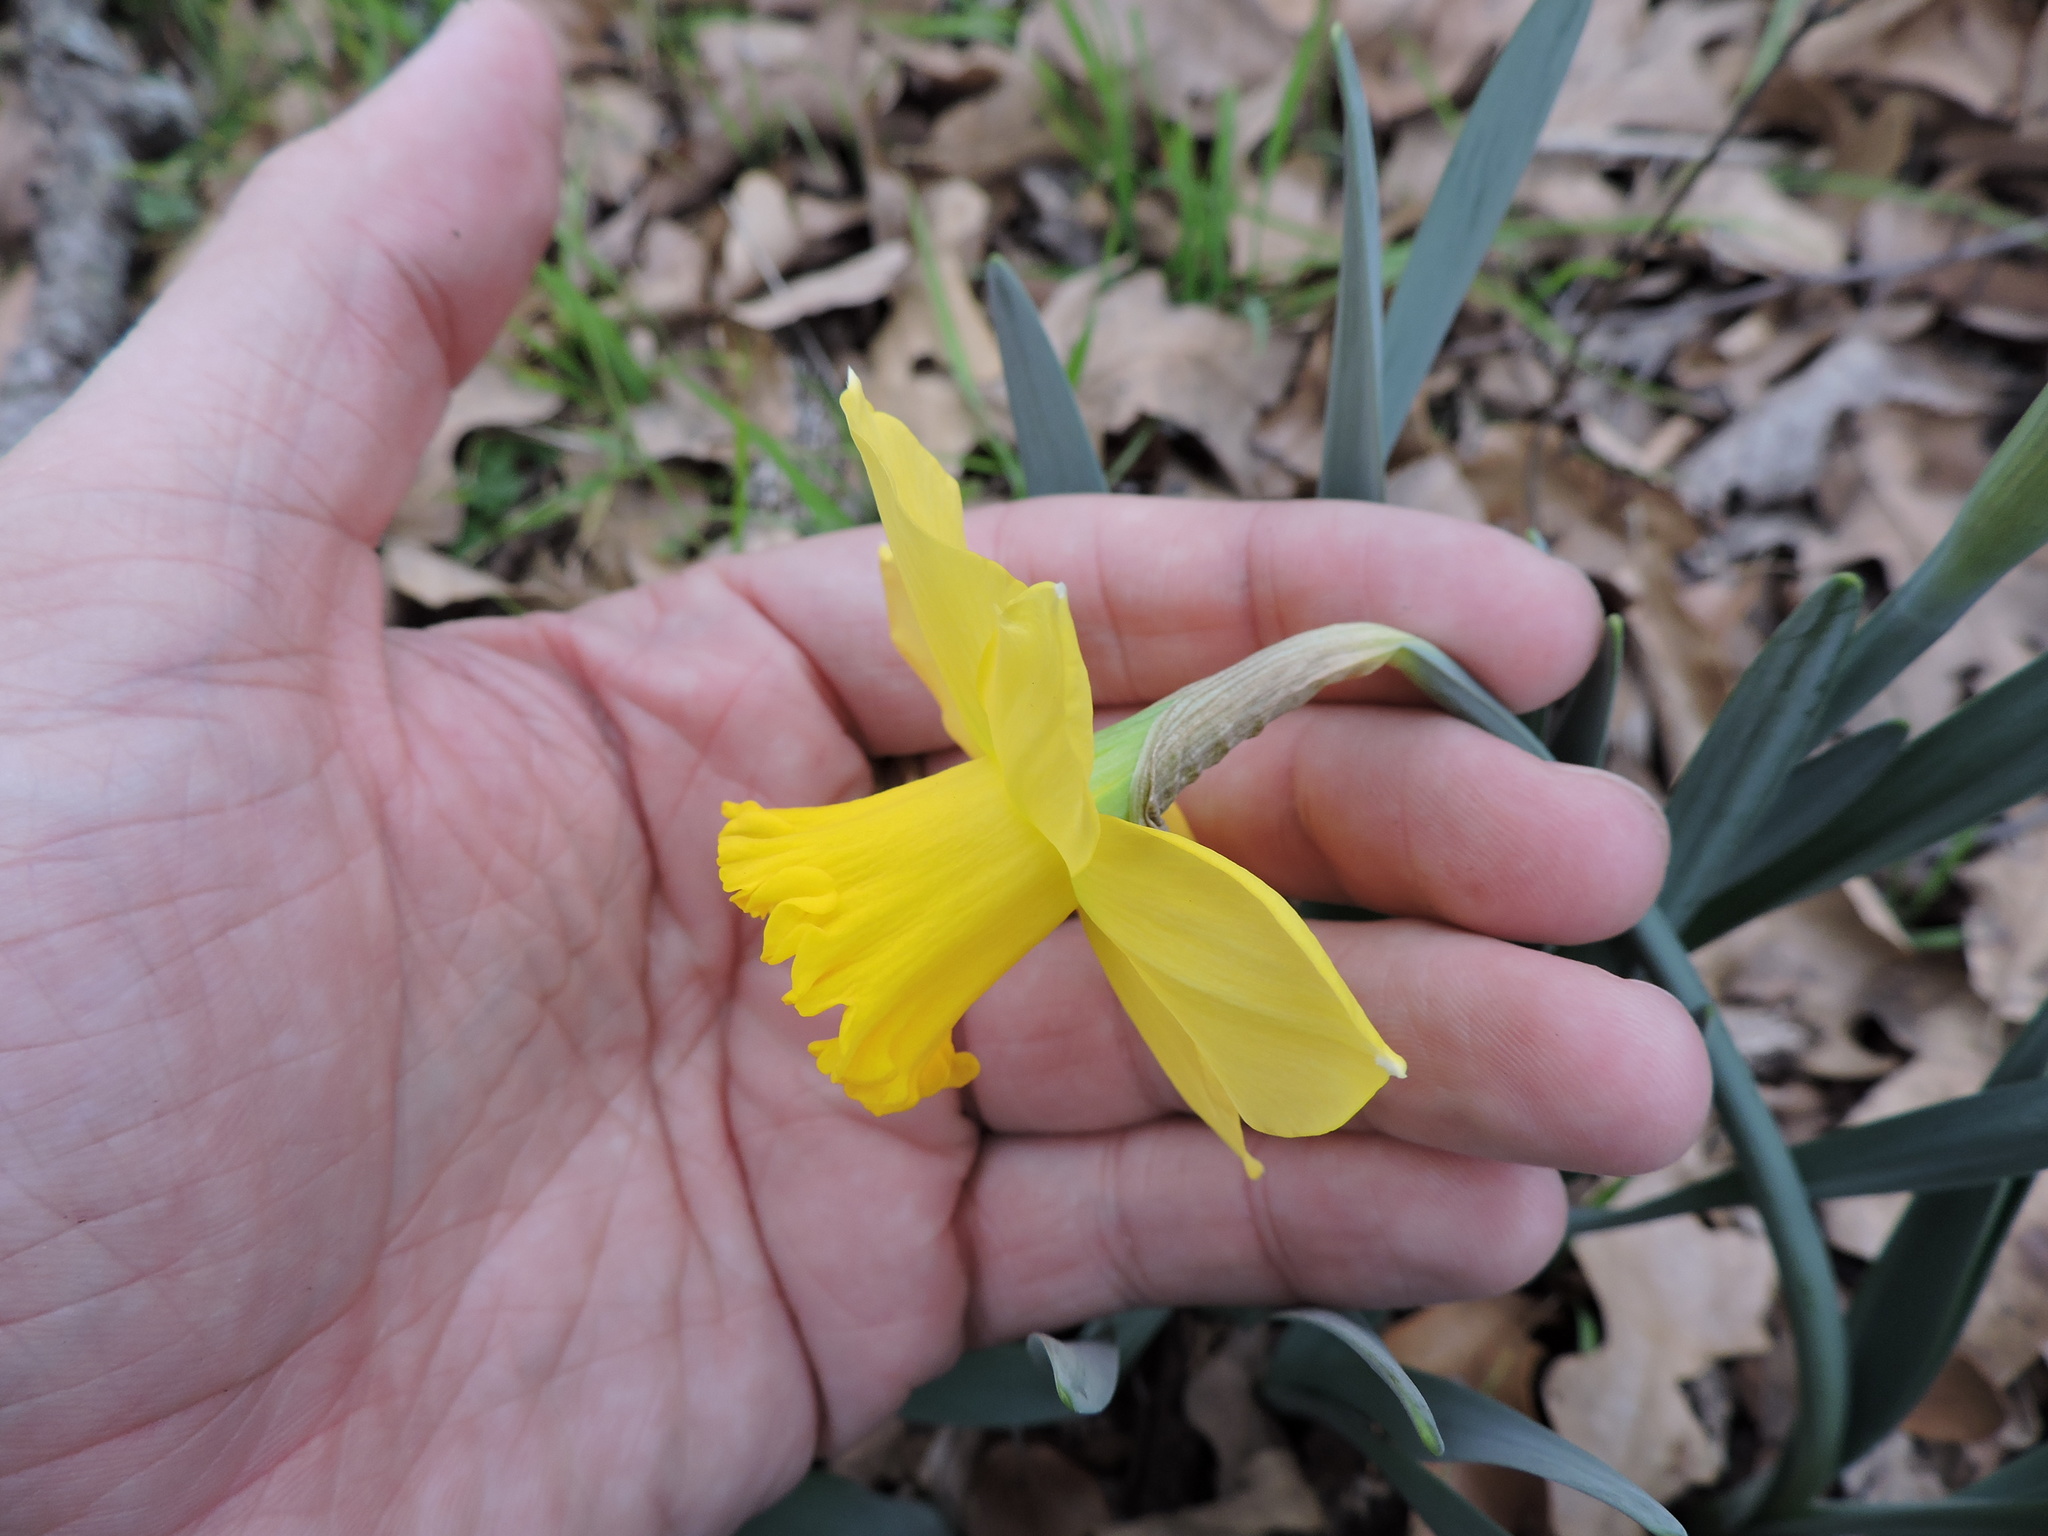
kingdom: Plantae
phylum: Tracheophyta
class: Liliopsida
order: Asparagales
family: Amaryllidaceae
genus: Narcissus
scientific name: Narcissus pseudonarcissus
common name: Daffodil
